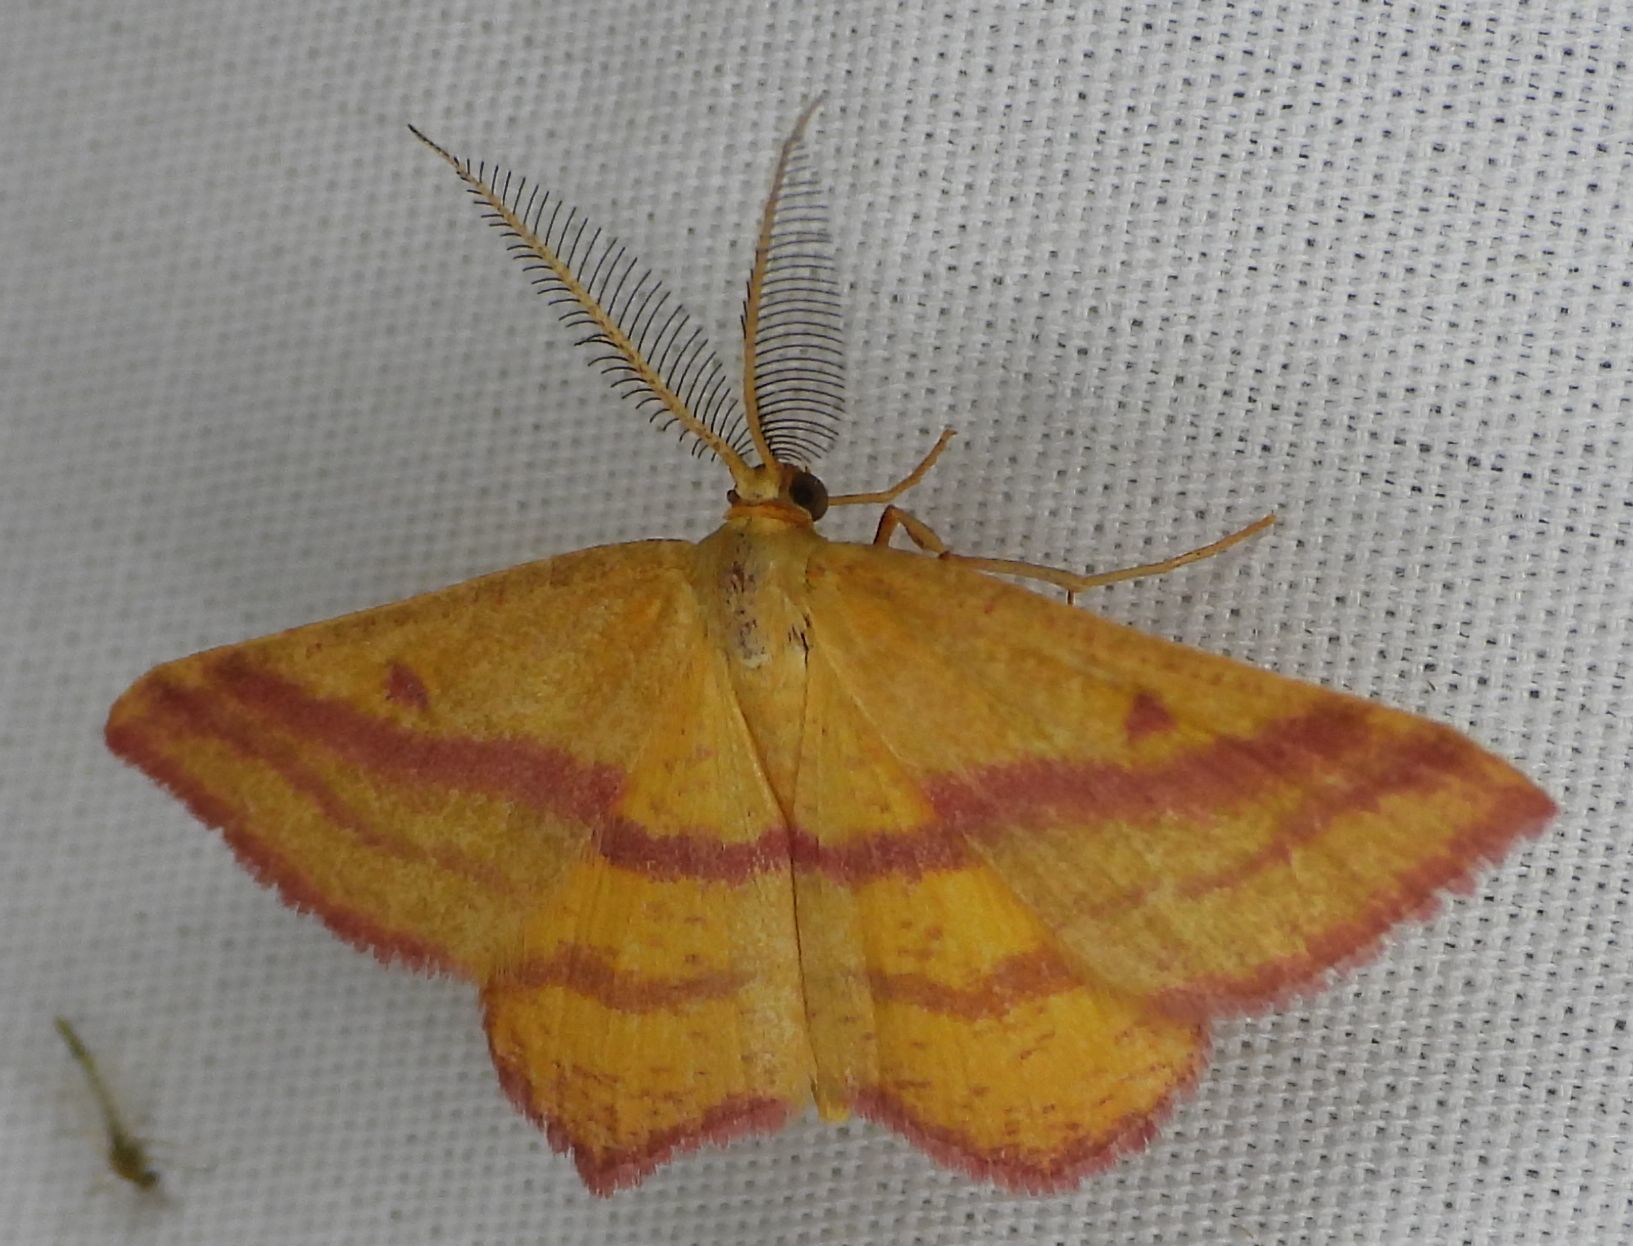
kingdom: Animalia
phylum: Arthropoda
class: Insecta
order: Lepidoptera
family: Geometridae
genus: Haematopis
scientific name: Haematopis grataria
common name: Chickweed geometer
